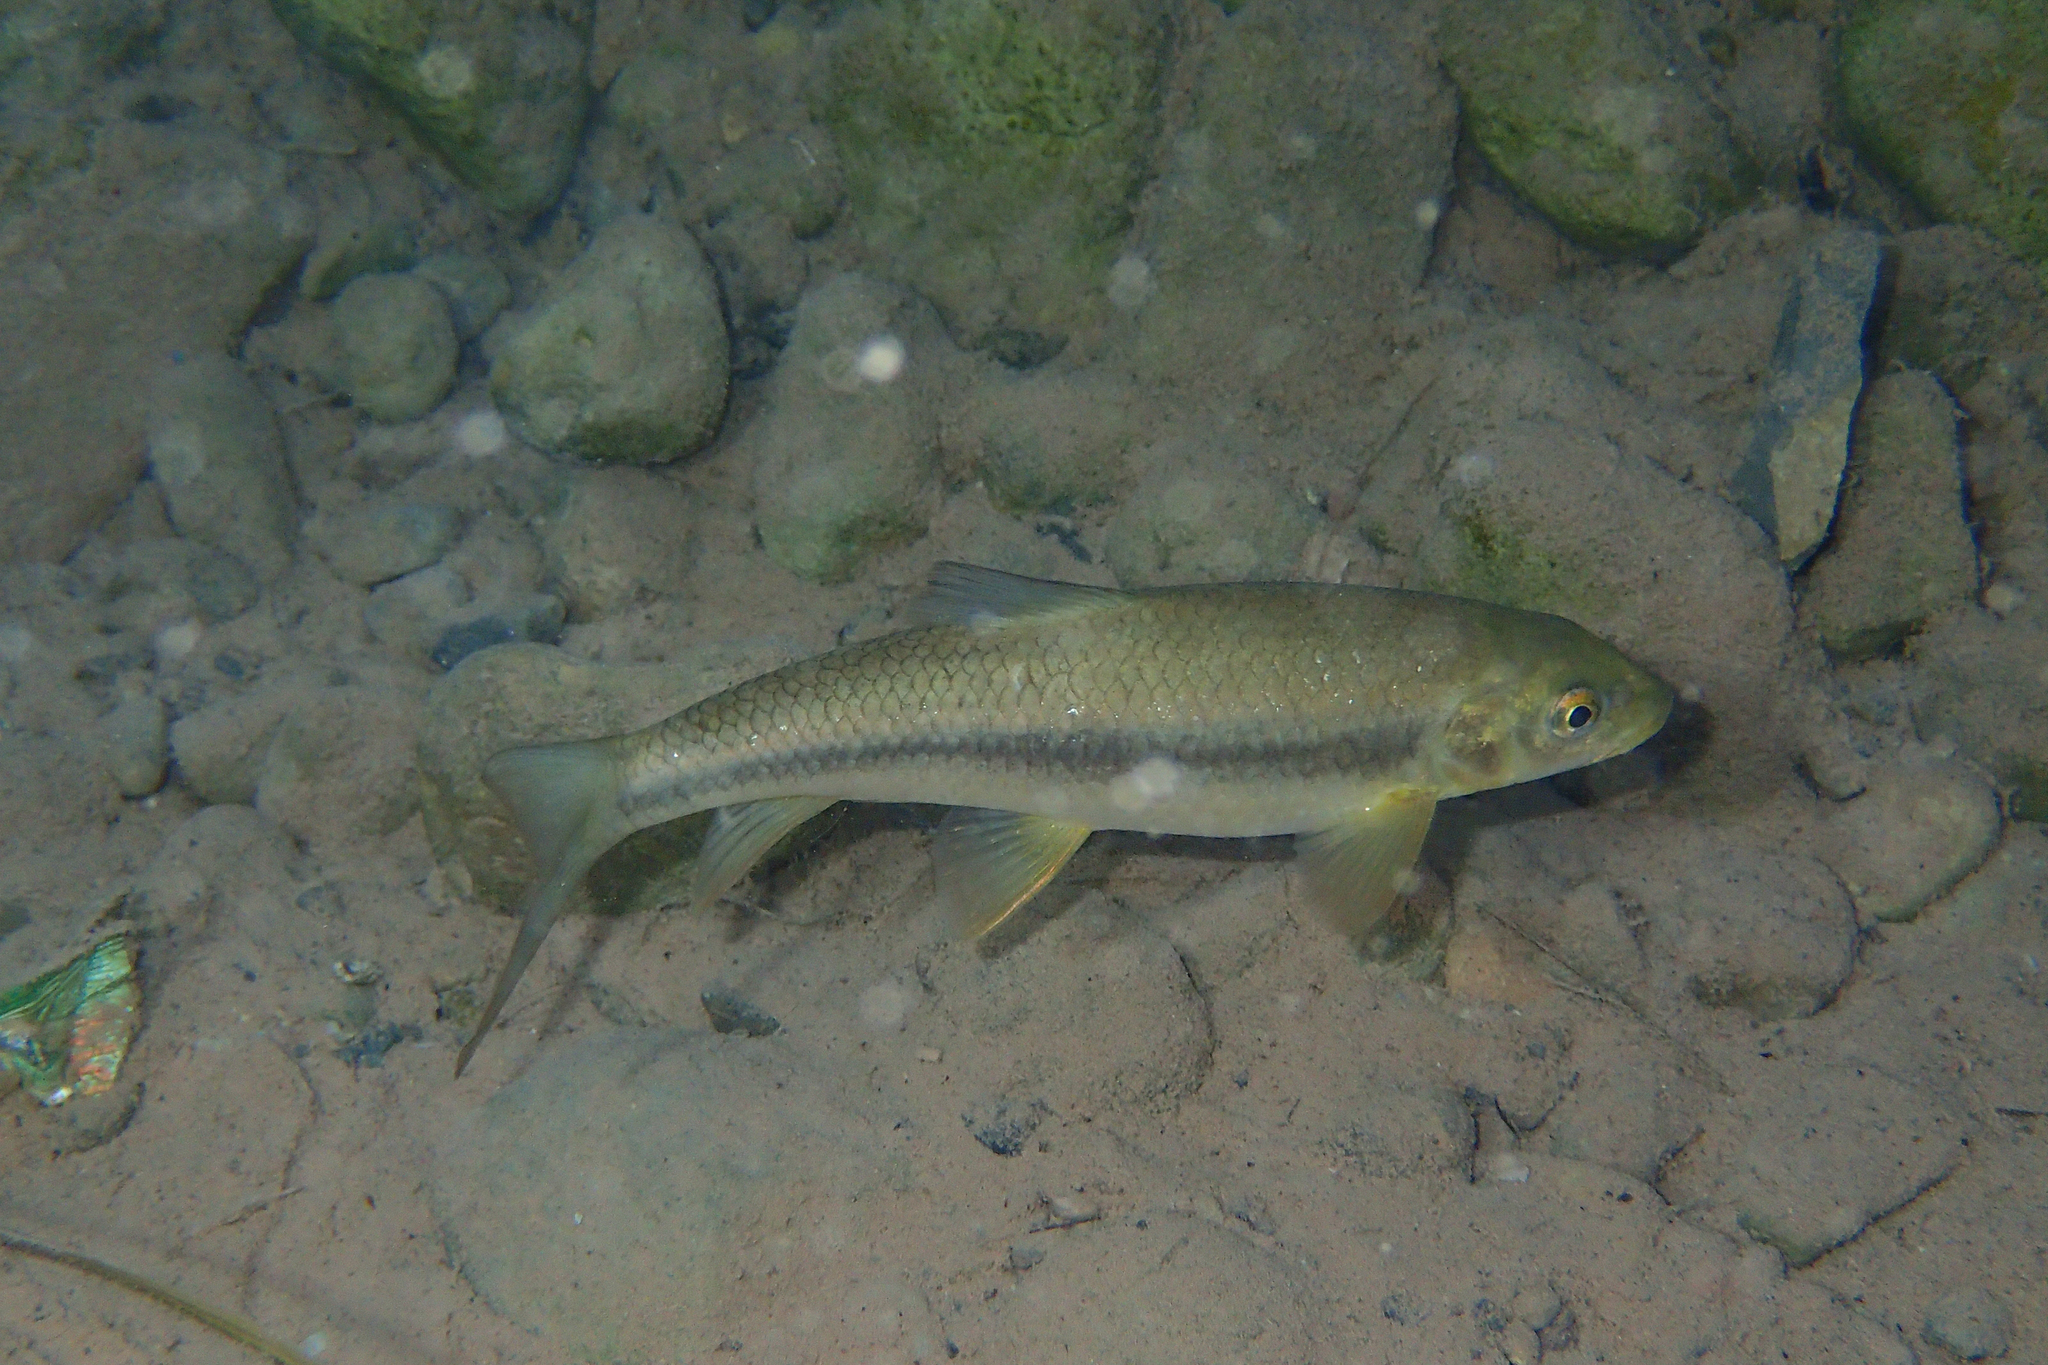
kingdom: Animalia
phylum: Chordata
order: Cypriniformes
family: Cyprinidae
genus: Carasobarbus
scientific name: Carasobarbus fritschii
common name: Striped himri
